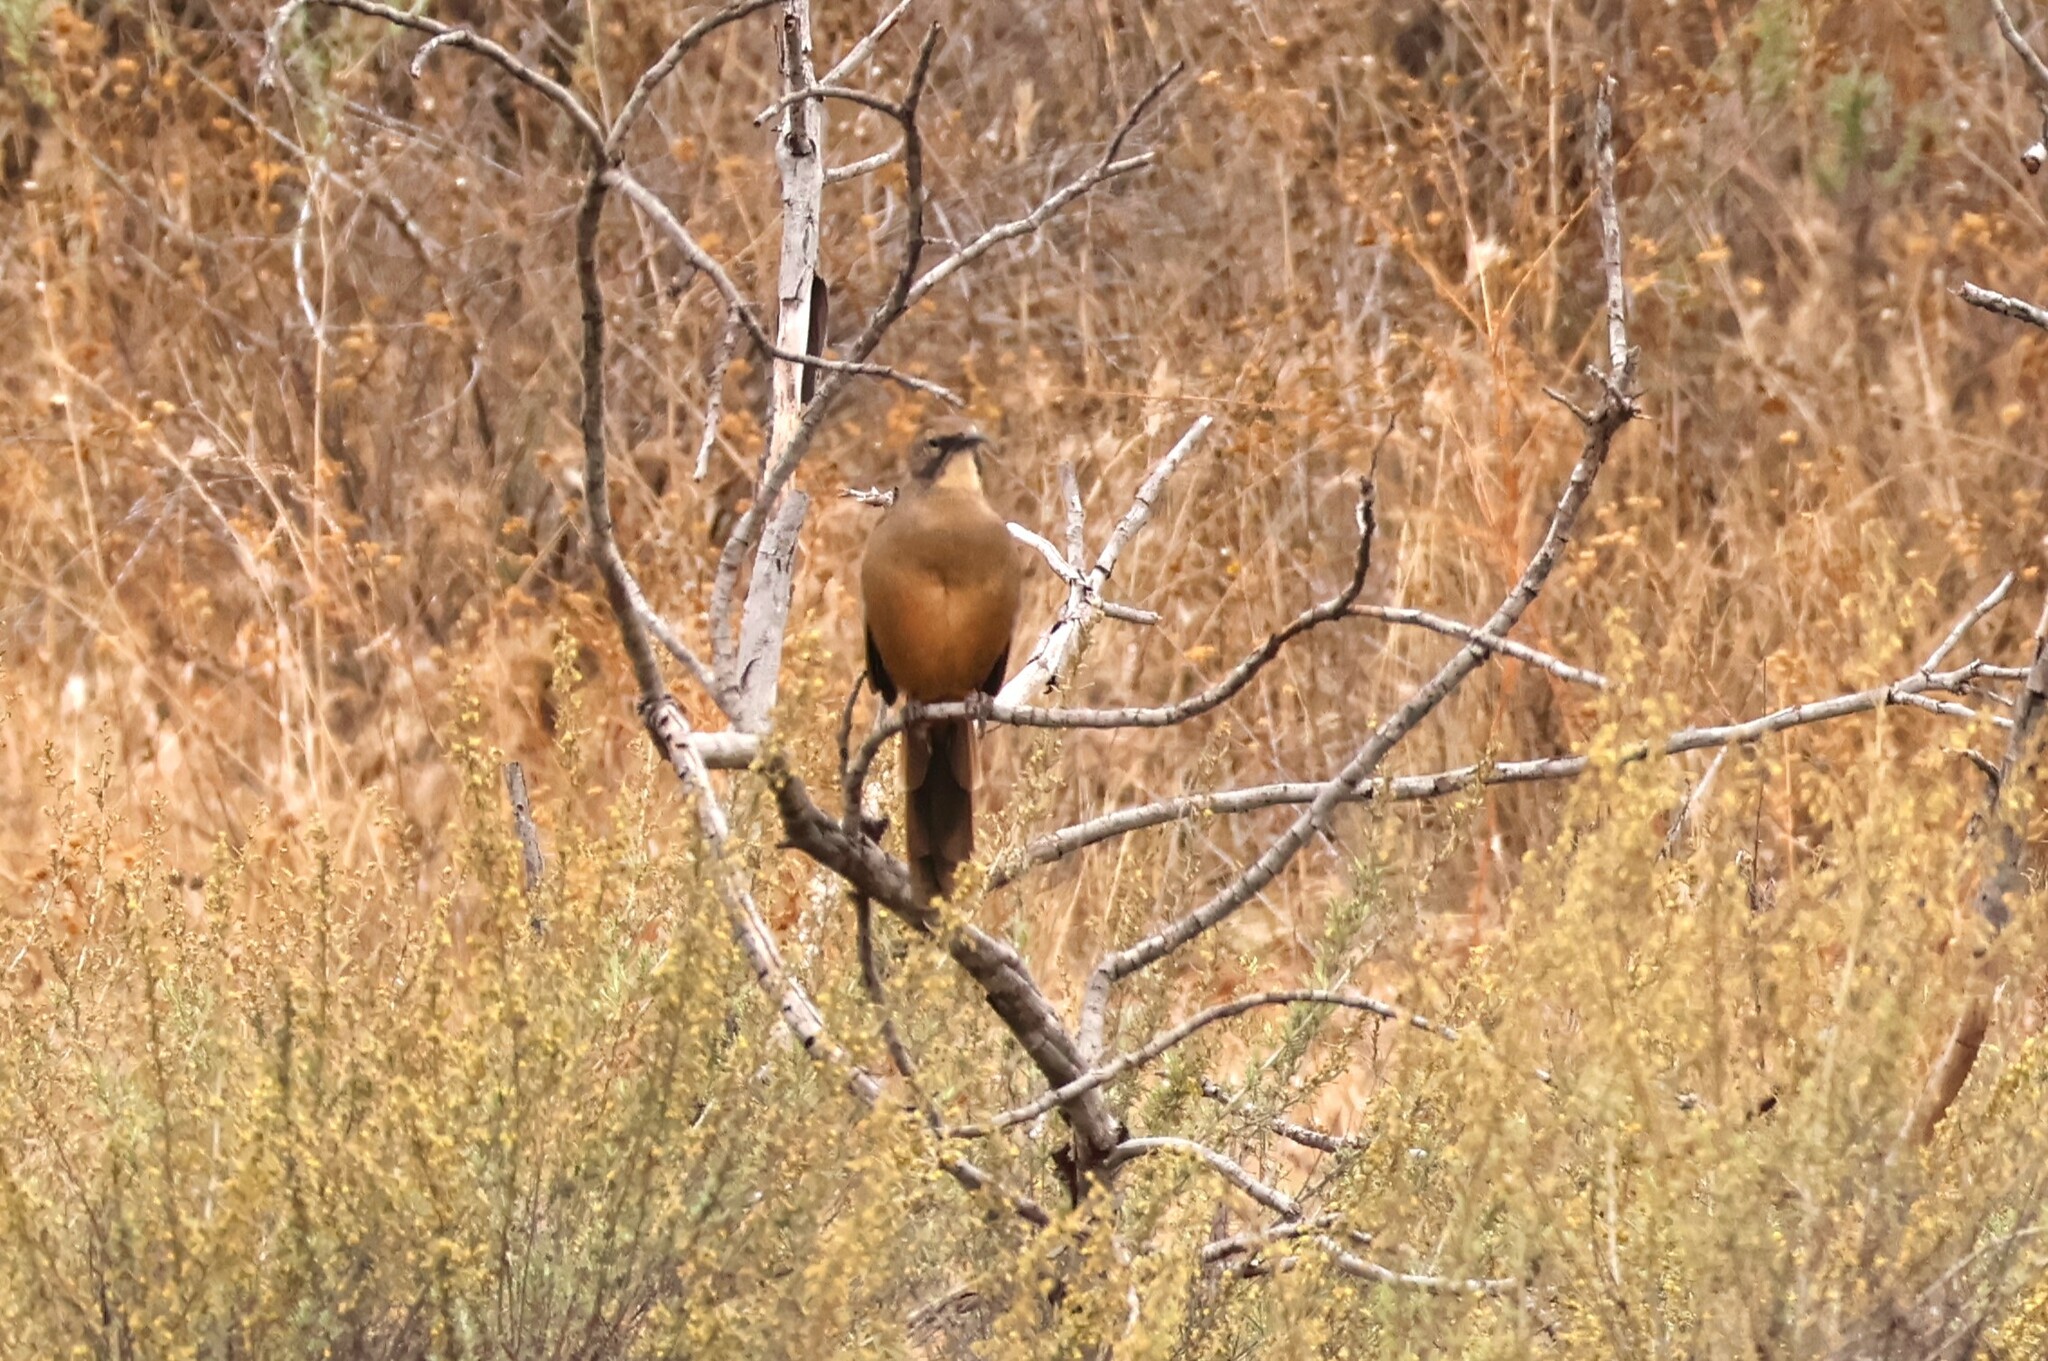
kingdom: Animalia
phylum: Chordata
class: Aves
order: Passeriformes
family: Mimidae
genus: Toxostoma
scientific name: Toxostoma redivivum
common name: California thrasher
